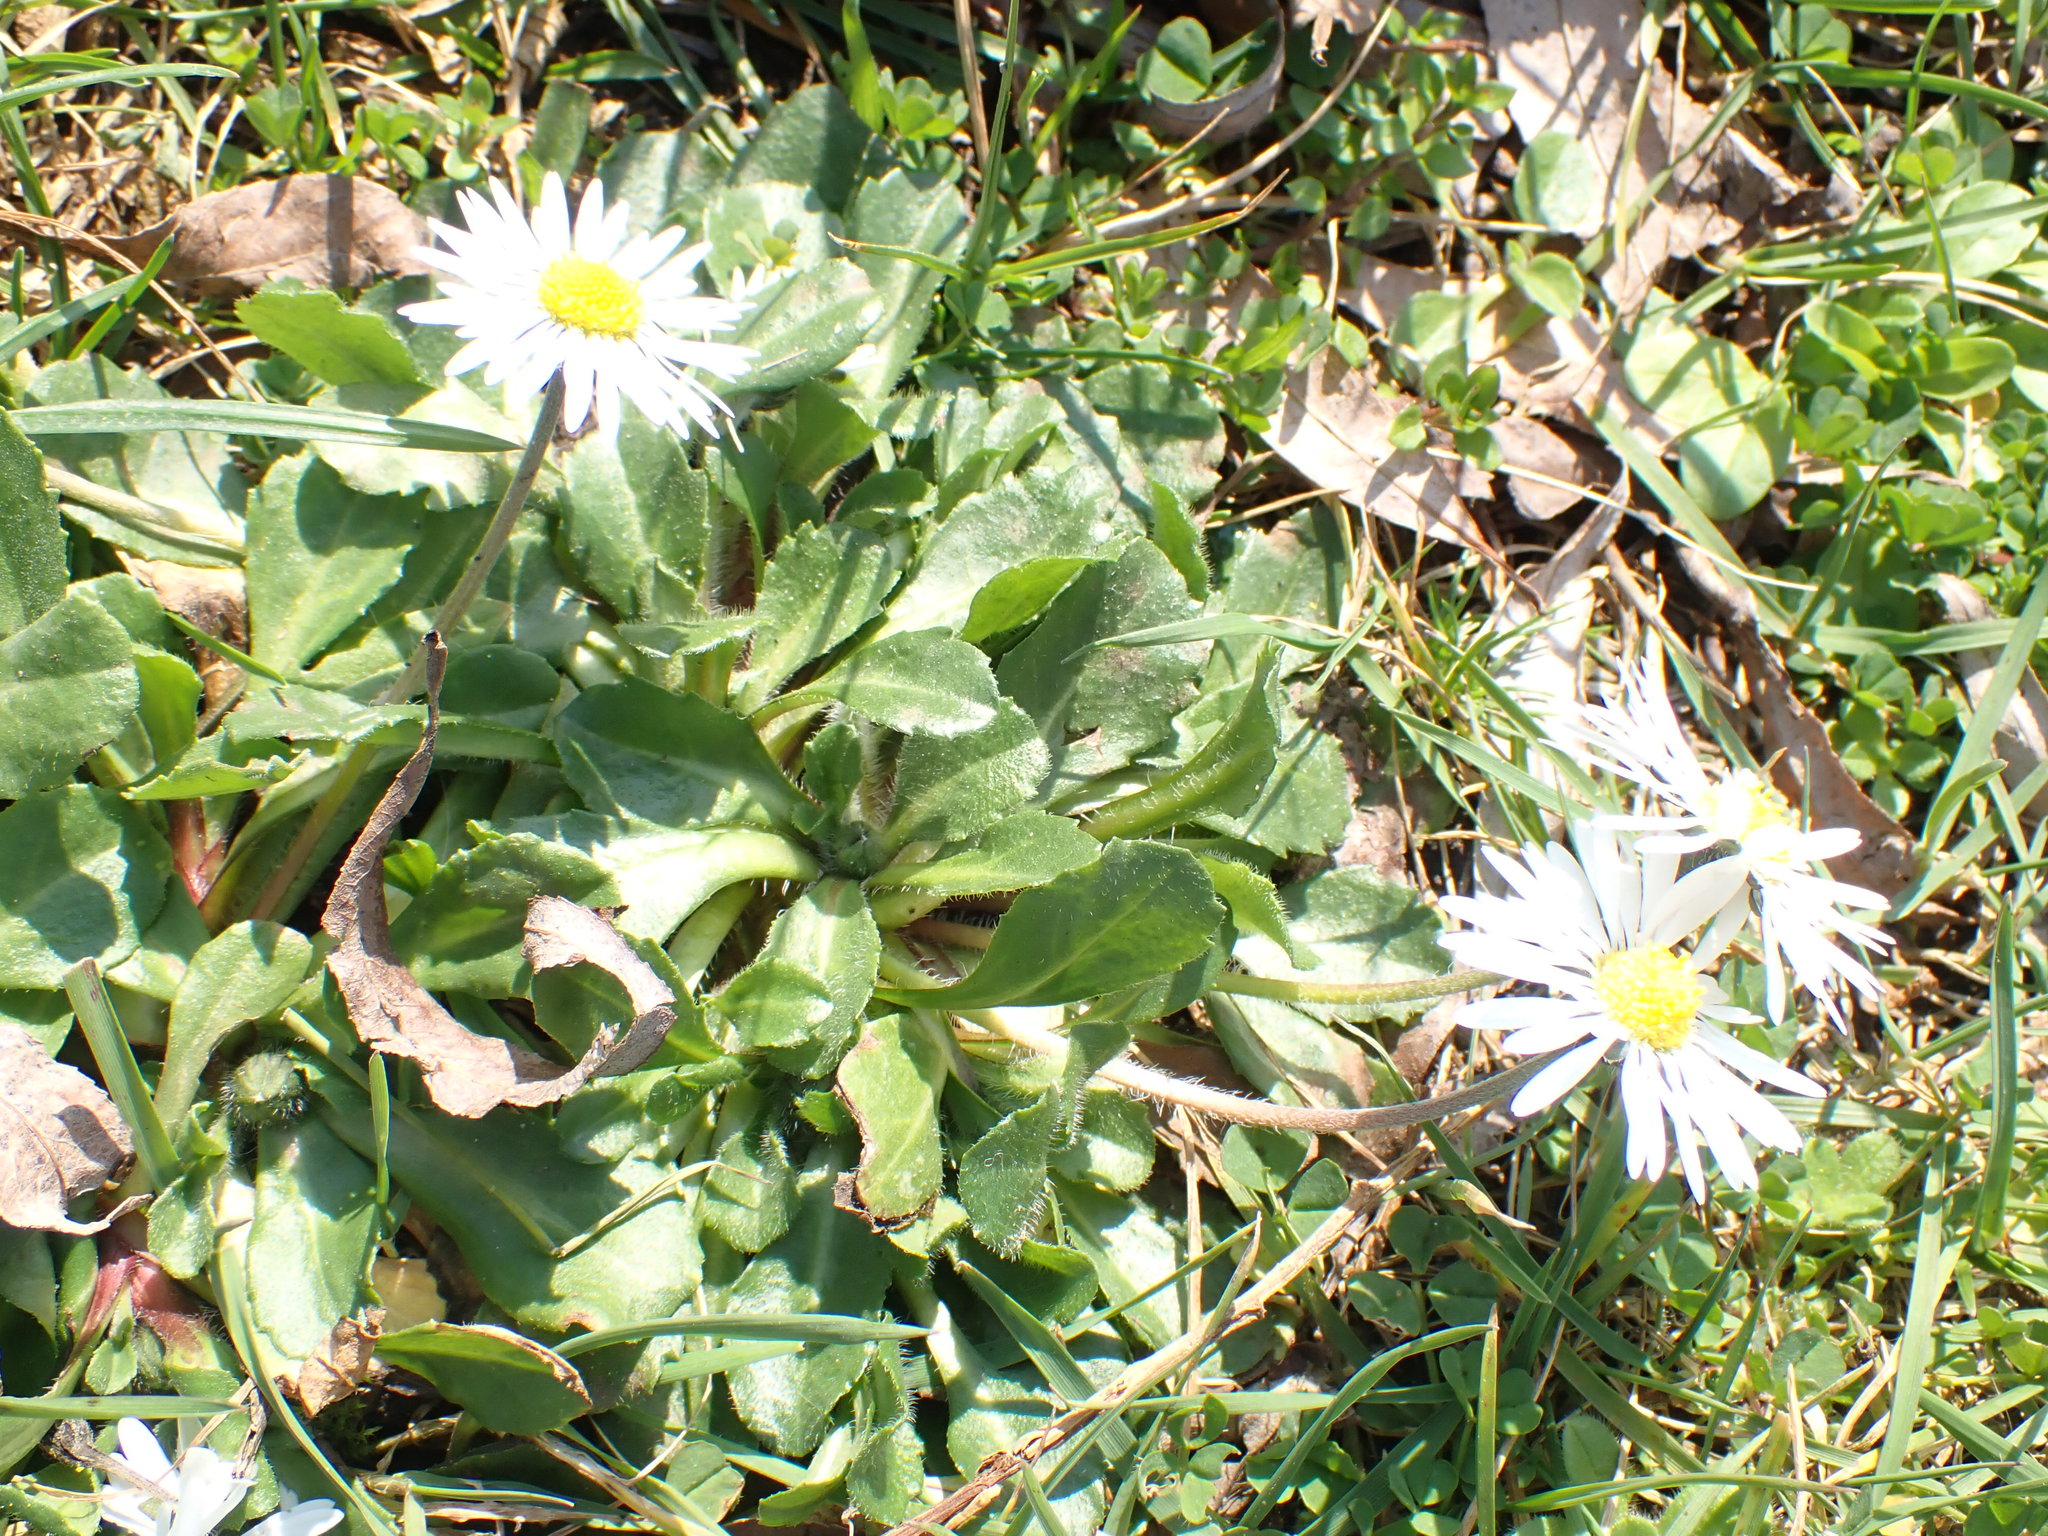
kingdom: Plantae
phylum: Tracheophyta
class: Magnoliopsida
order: Asterales
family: Asteraceae
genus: Bellis
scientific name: Bellis perennis
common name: Lawndaisy
